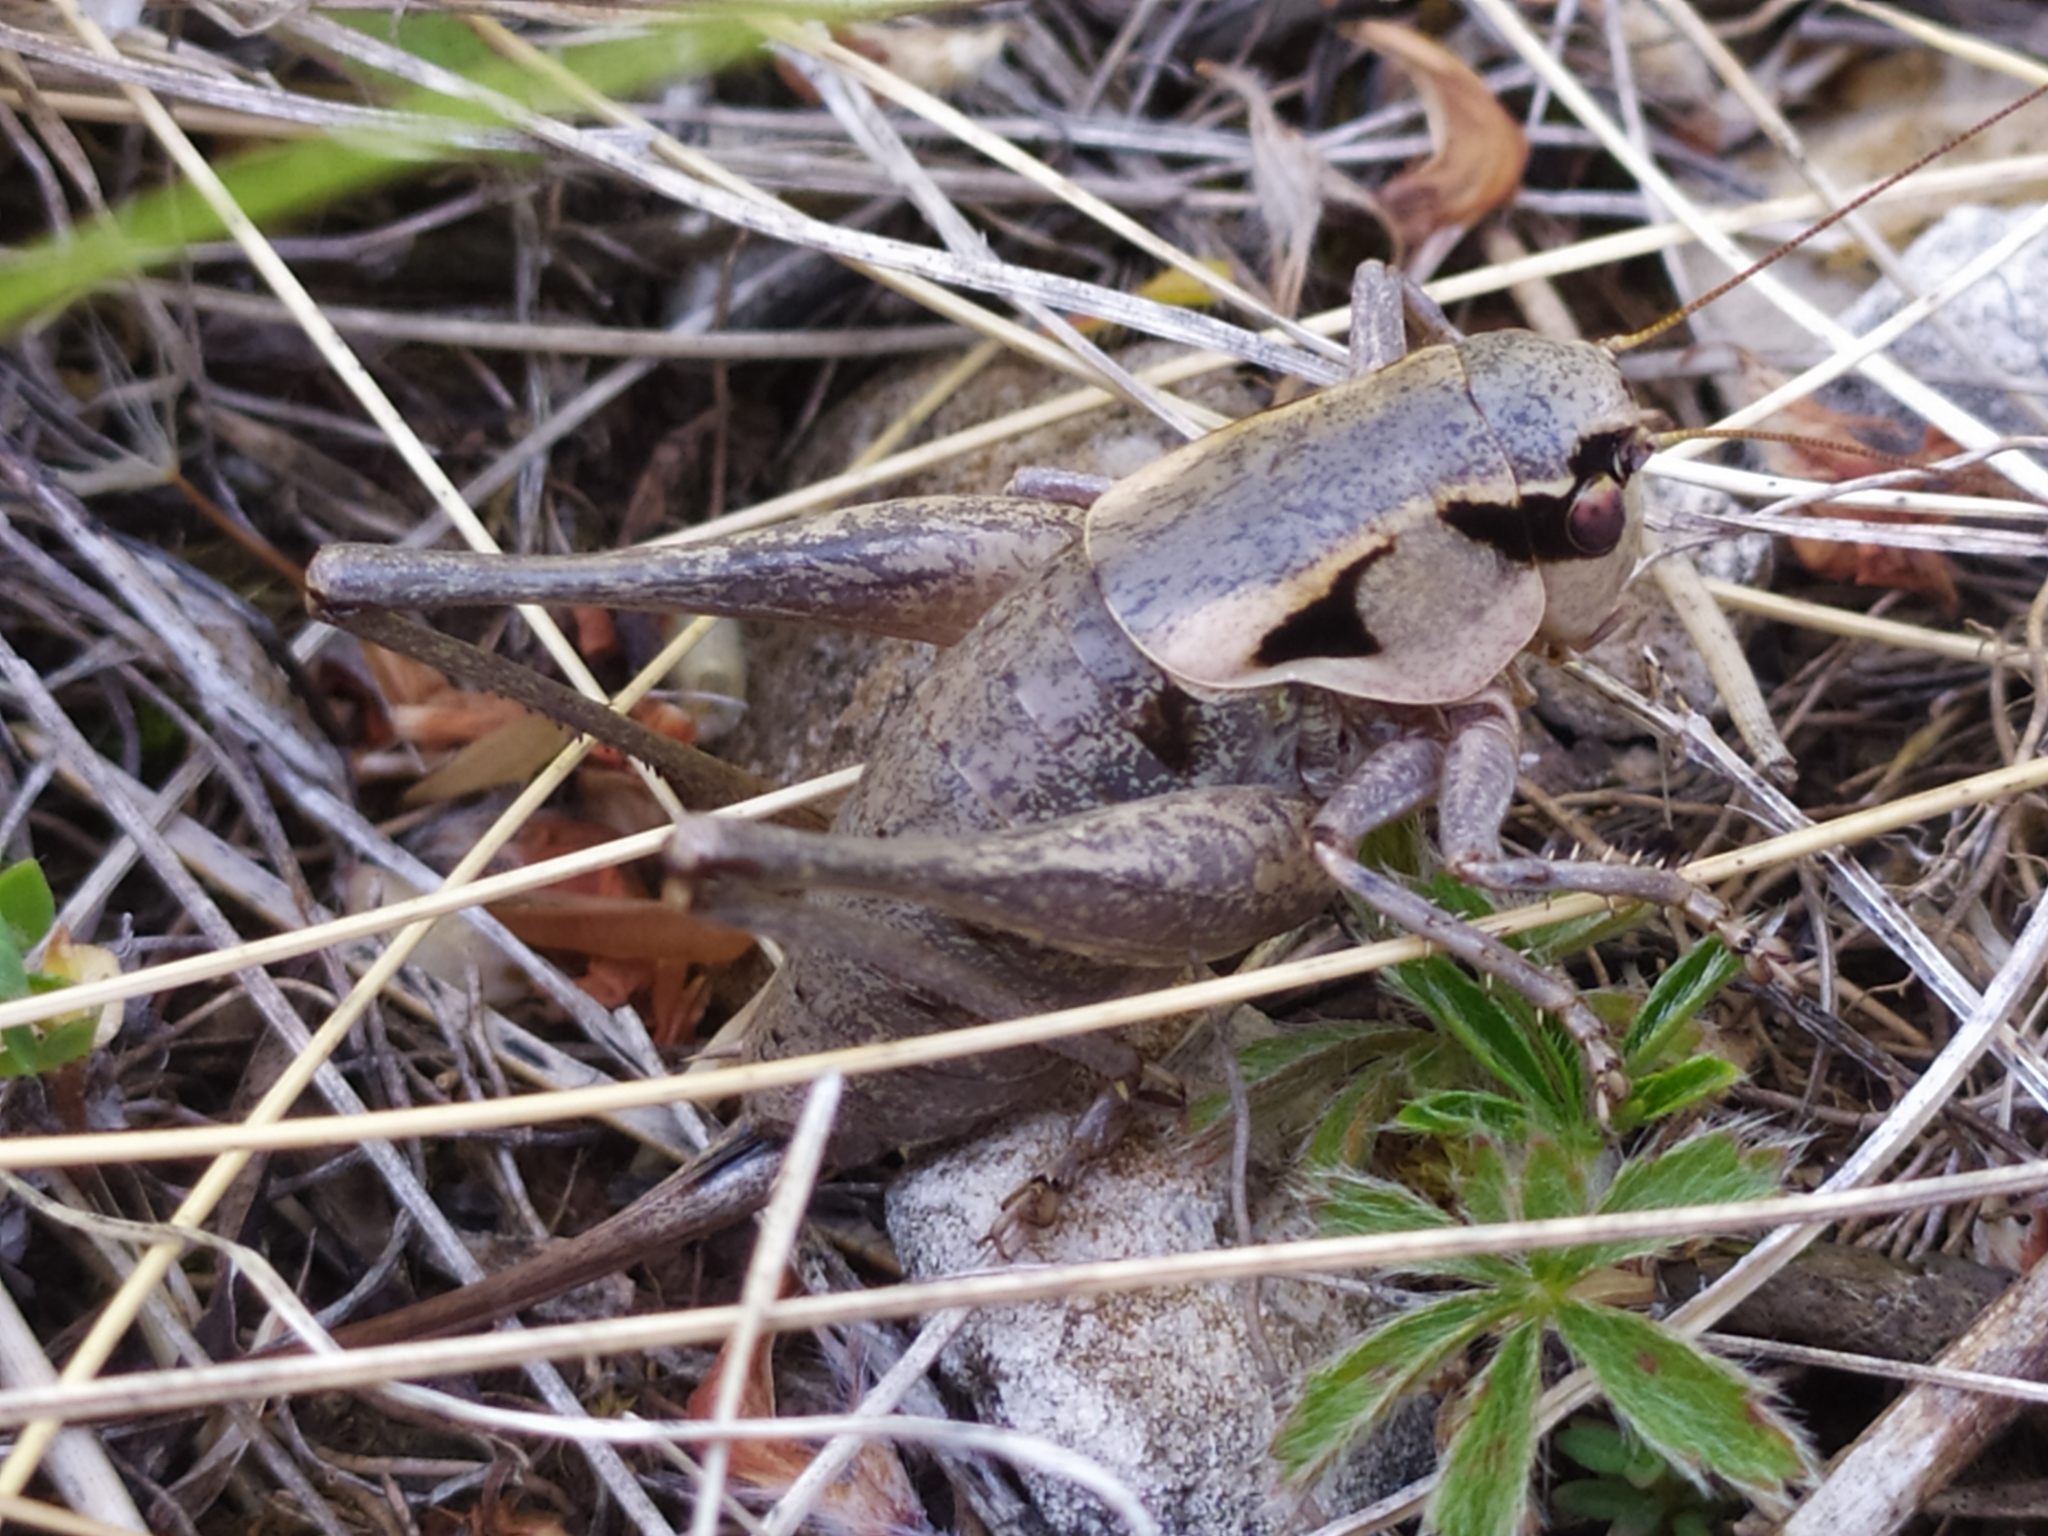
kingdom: Animalia
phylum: Arthropoda
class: Insecta
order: Orthoptera
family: Tettigoniidae
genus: Pholidoptera
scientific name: Pholidoptera dalmatica
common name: Dalmatian dark bush-cricket
